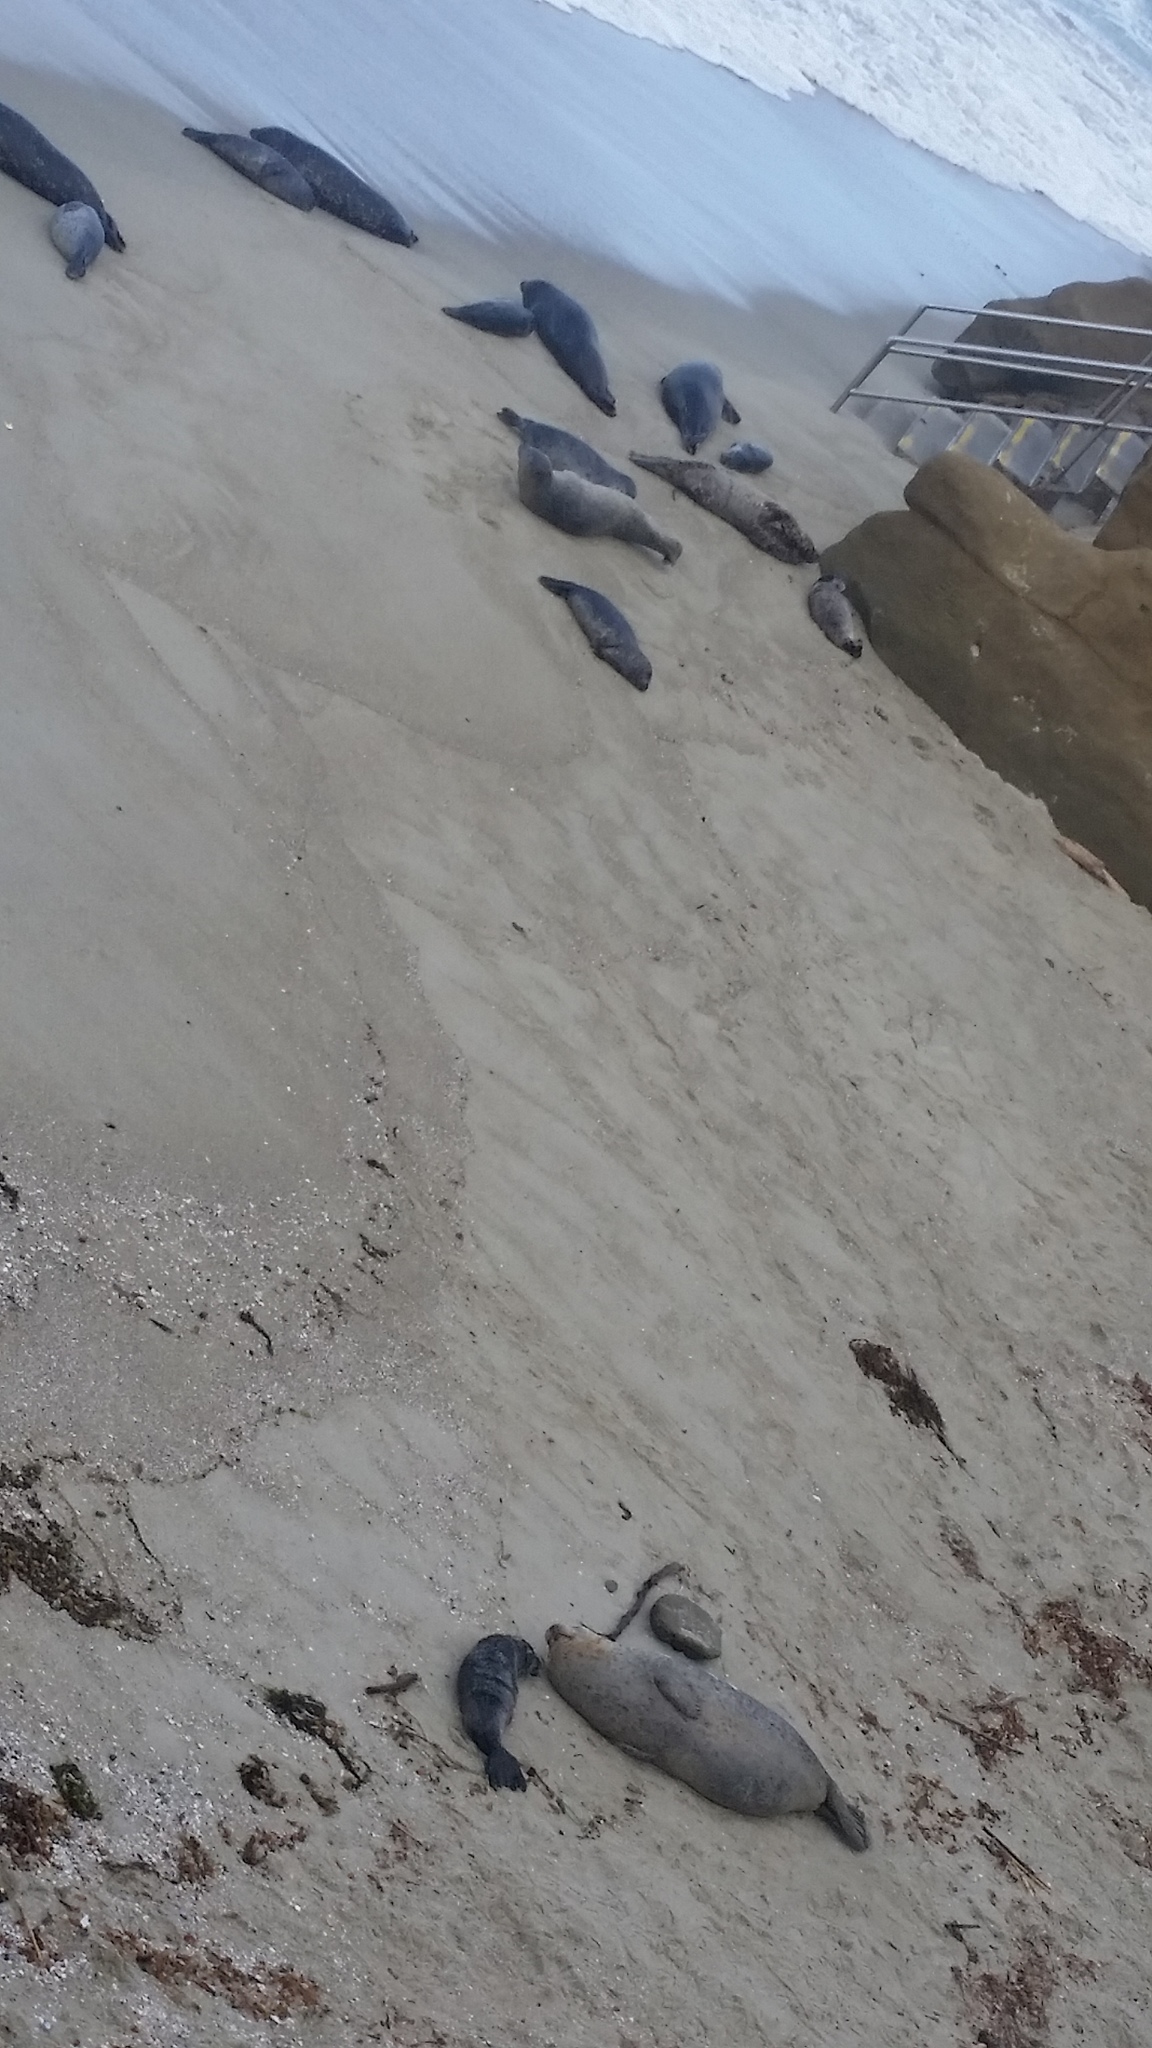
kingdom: Animalia
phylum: Chordata
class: Mammalia
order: Carnivora
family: Phocidae
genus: Phoca
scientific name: Phoca vitulina
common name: Harbor seal
